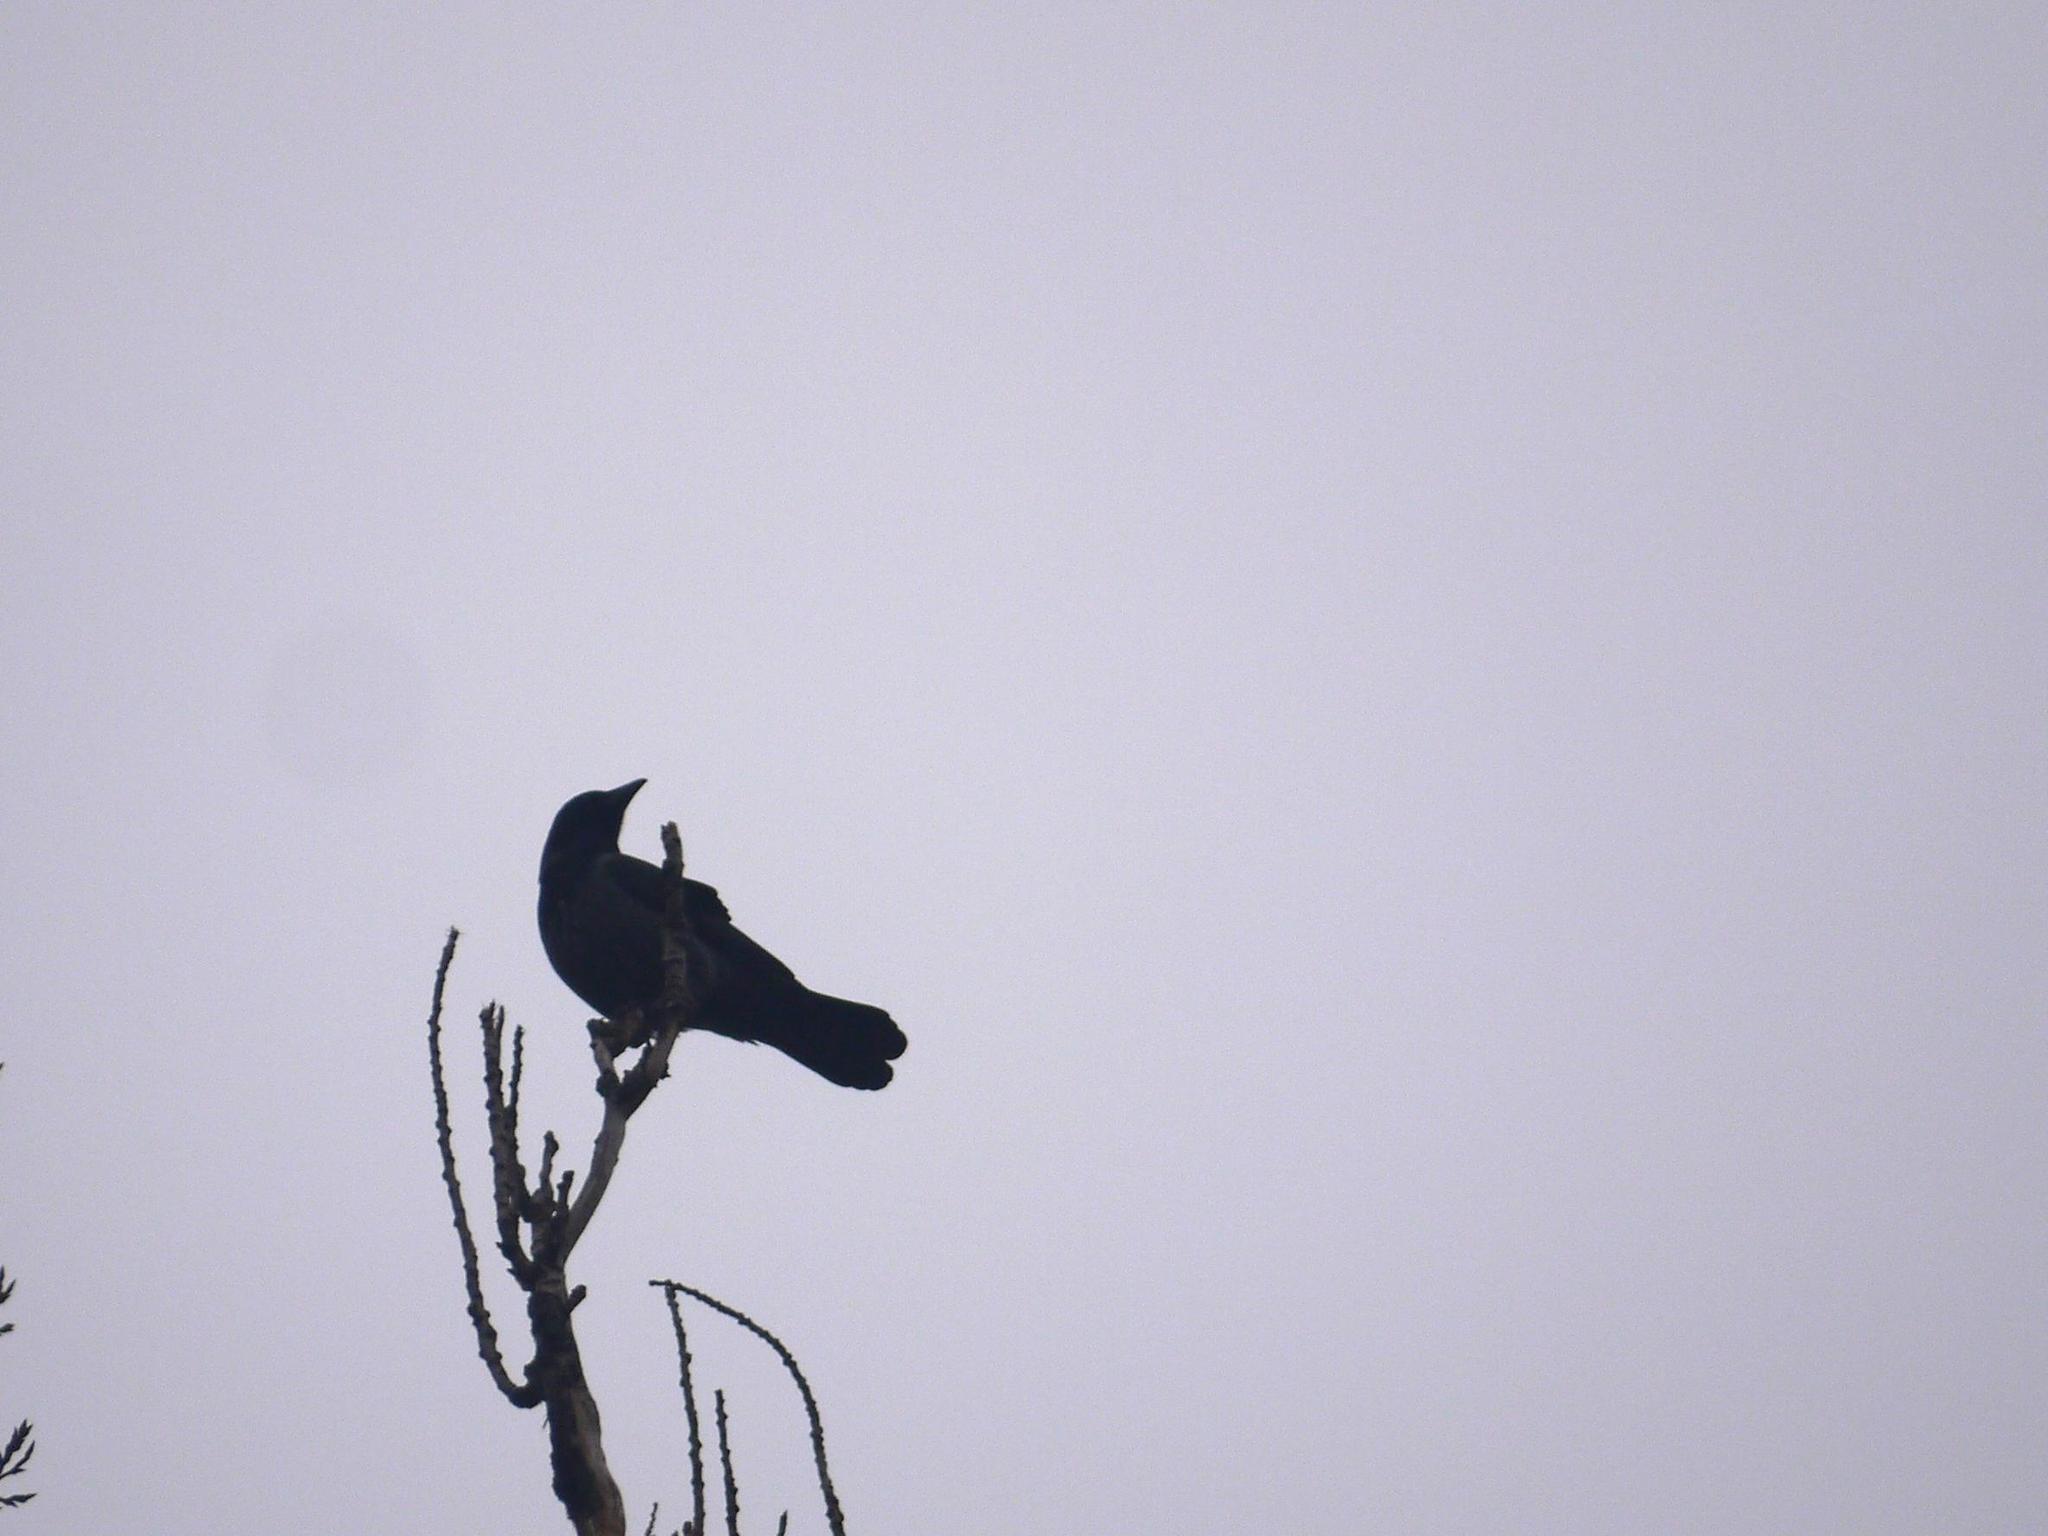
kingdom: Animalia
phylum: Chordata
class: Aves
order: Passeriformes
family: Corvidae
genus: Corvus
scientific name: Corvus cornix
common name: Hooded crow
